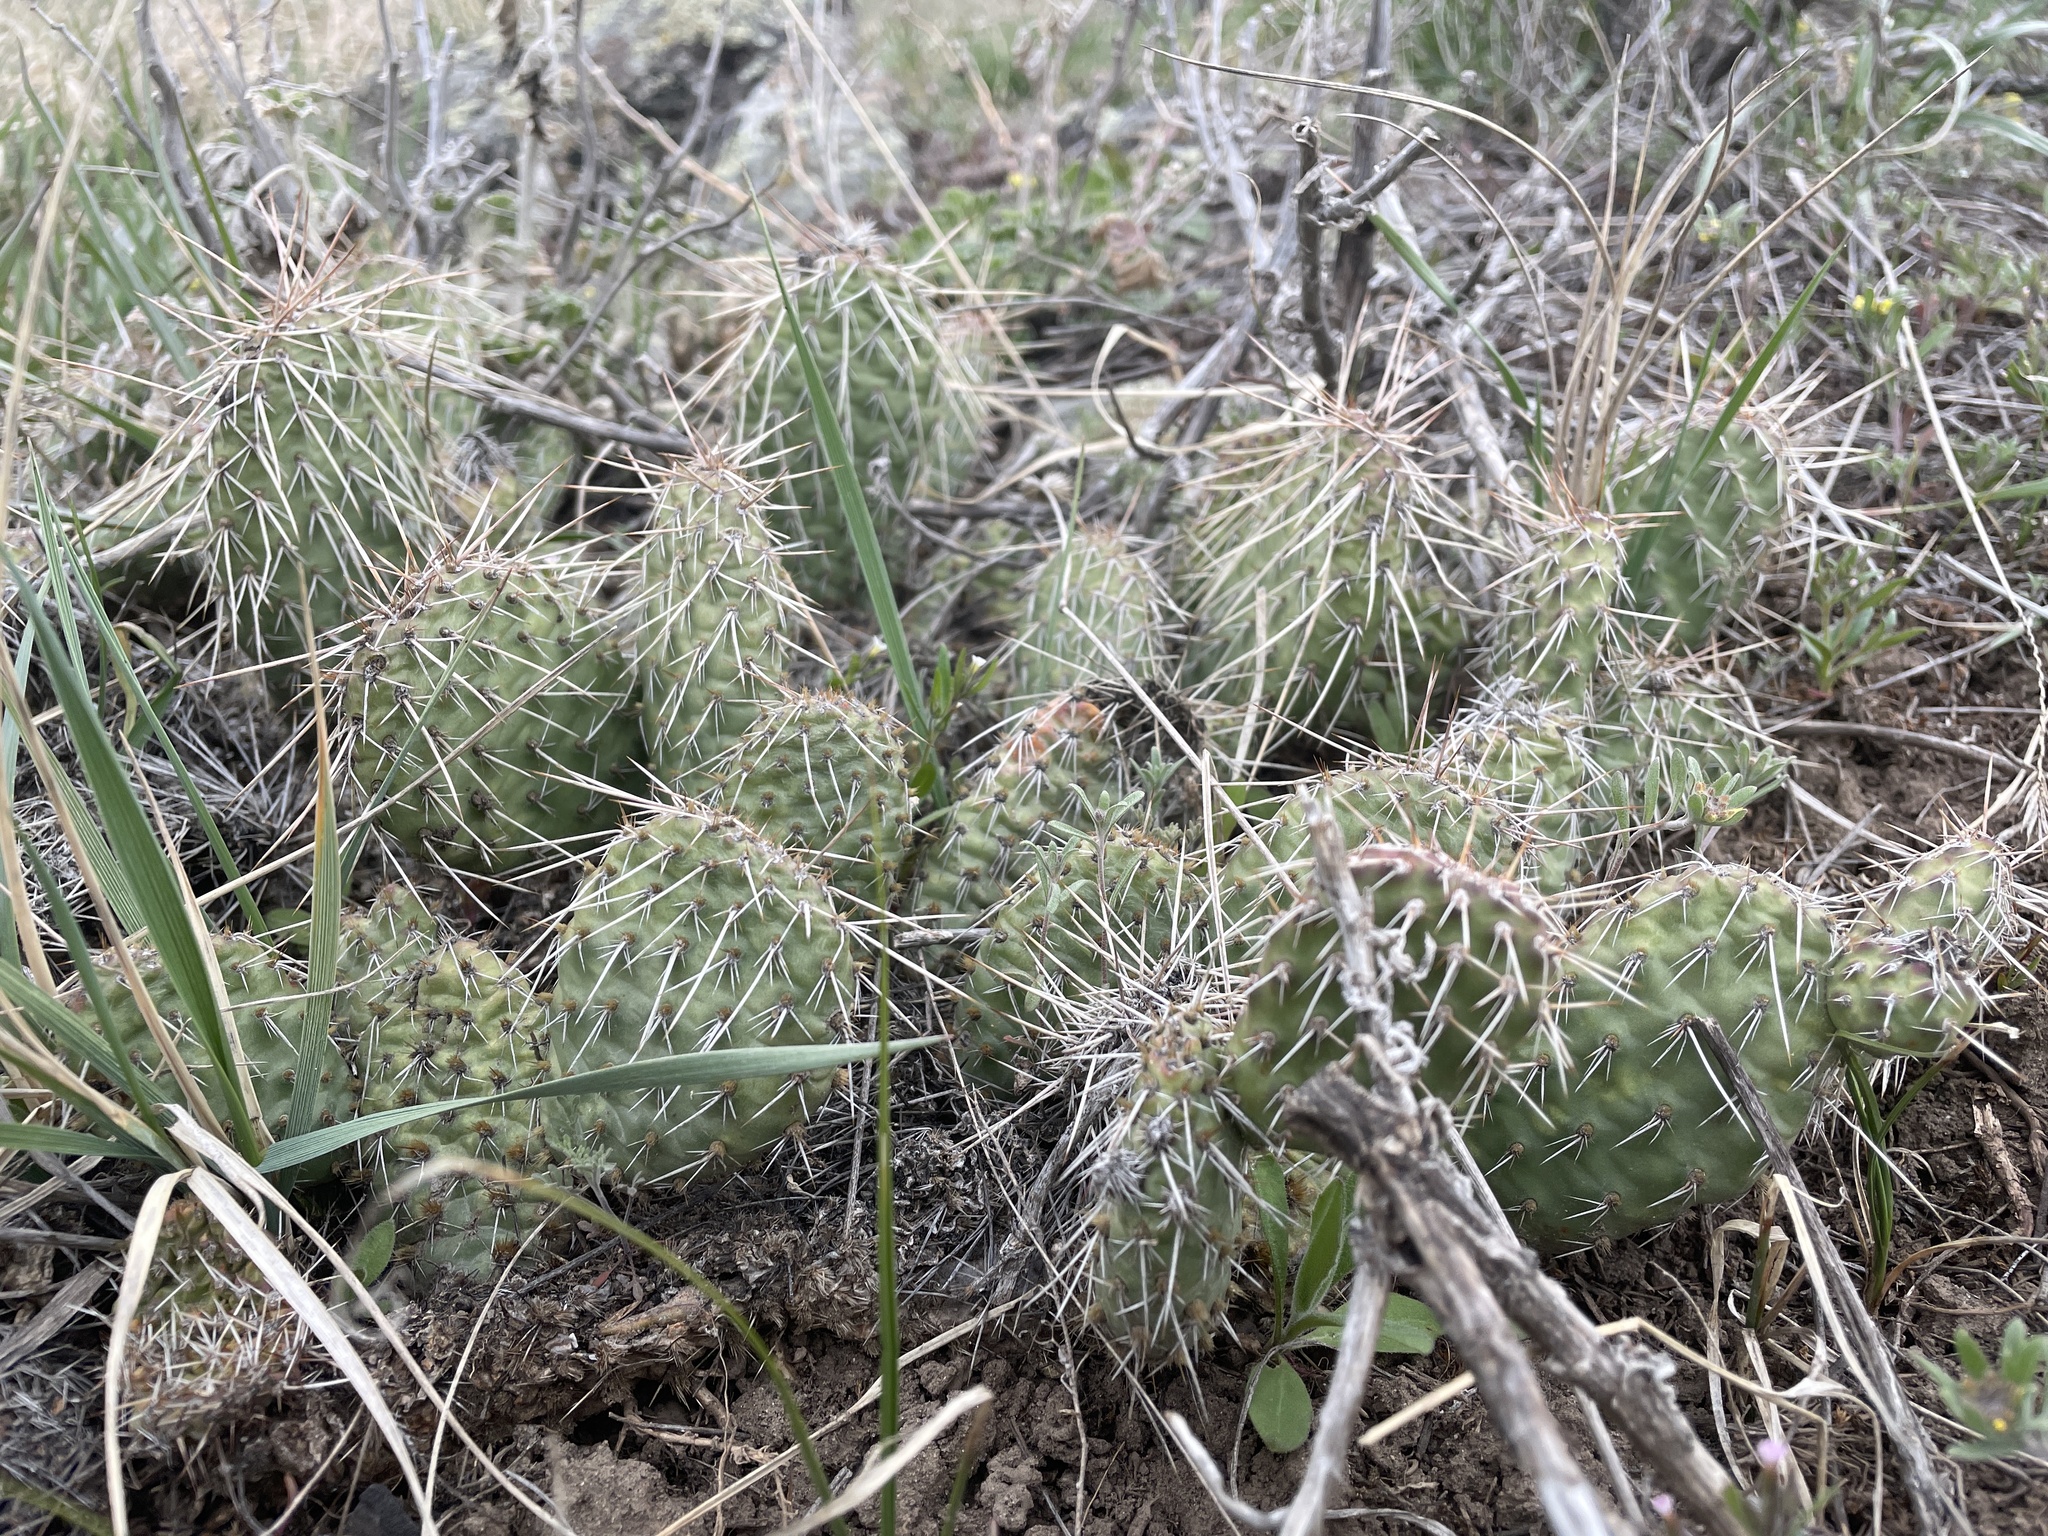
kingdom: Plantae
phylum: Tracheophyta
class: Magnoliopsida
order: Caryophyllales
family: Cactaceae
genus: Opuntia
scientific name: Opuntia polyacantha
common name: Plains prickly-pear
